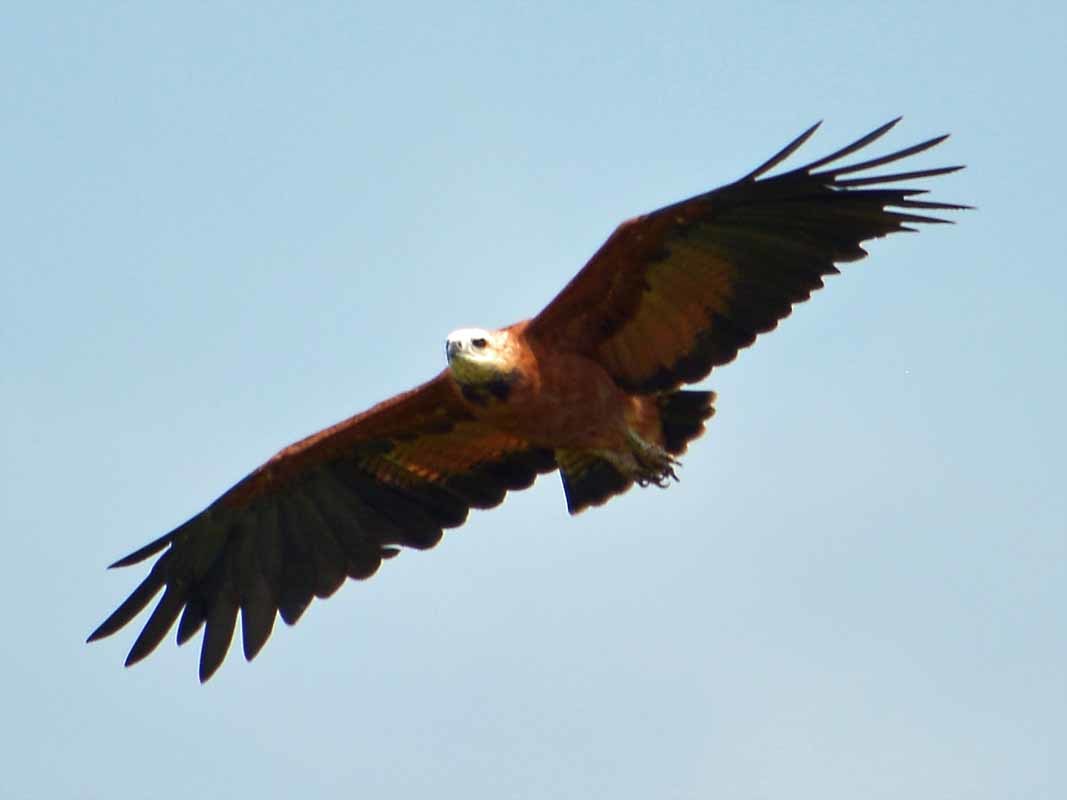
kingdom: Animalia
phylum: Chordata
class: Aves
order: Accipitriformes
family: Accipitridae
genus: Busarellus
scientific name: Busarellus nigricollis
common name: Black-collared hawk
